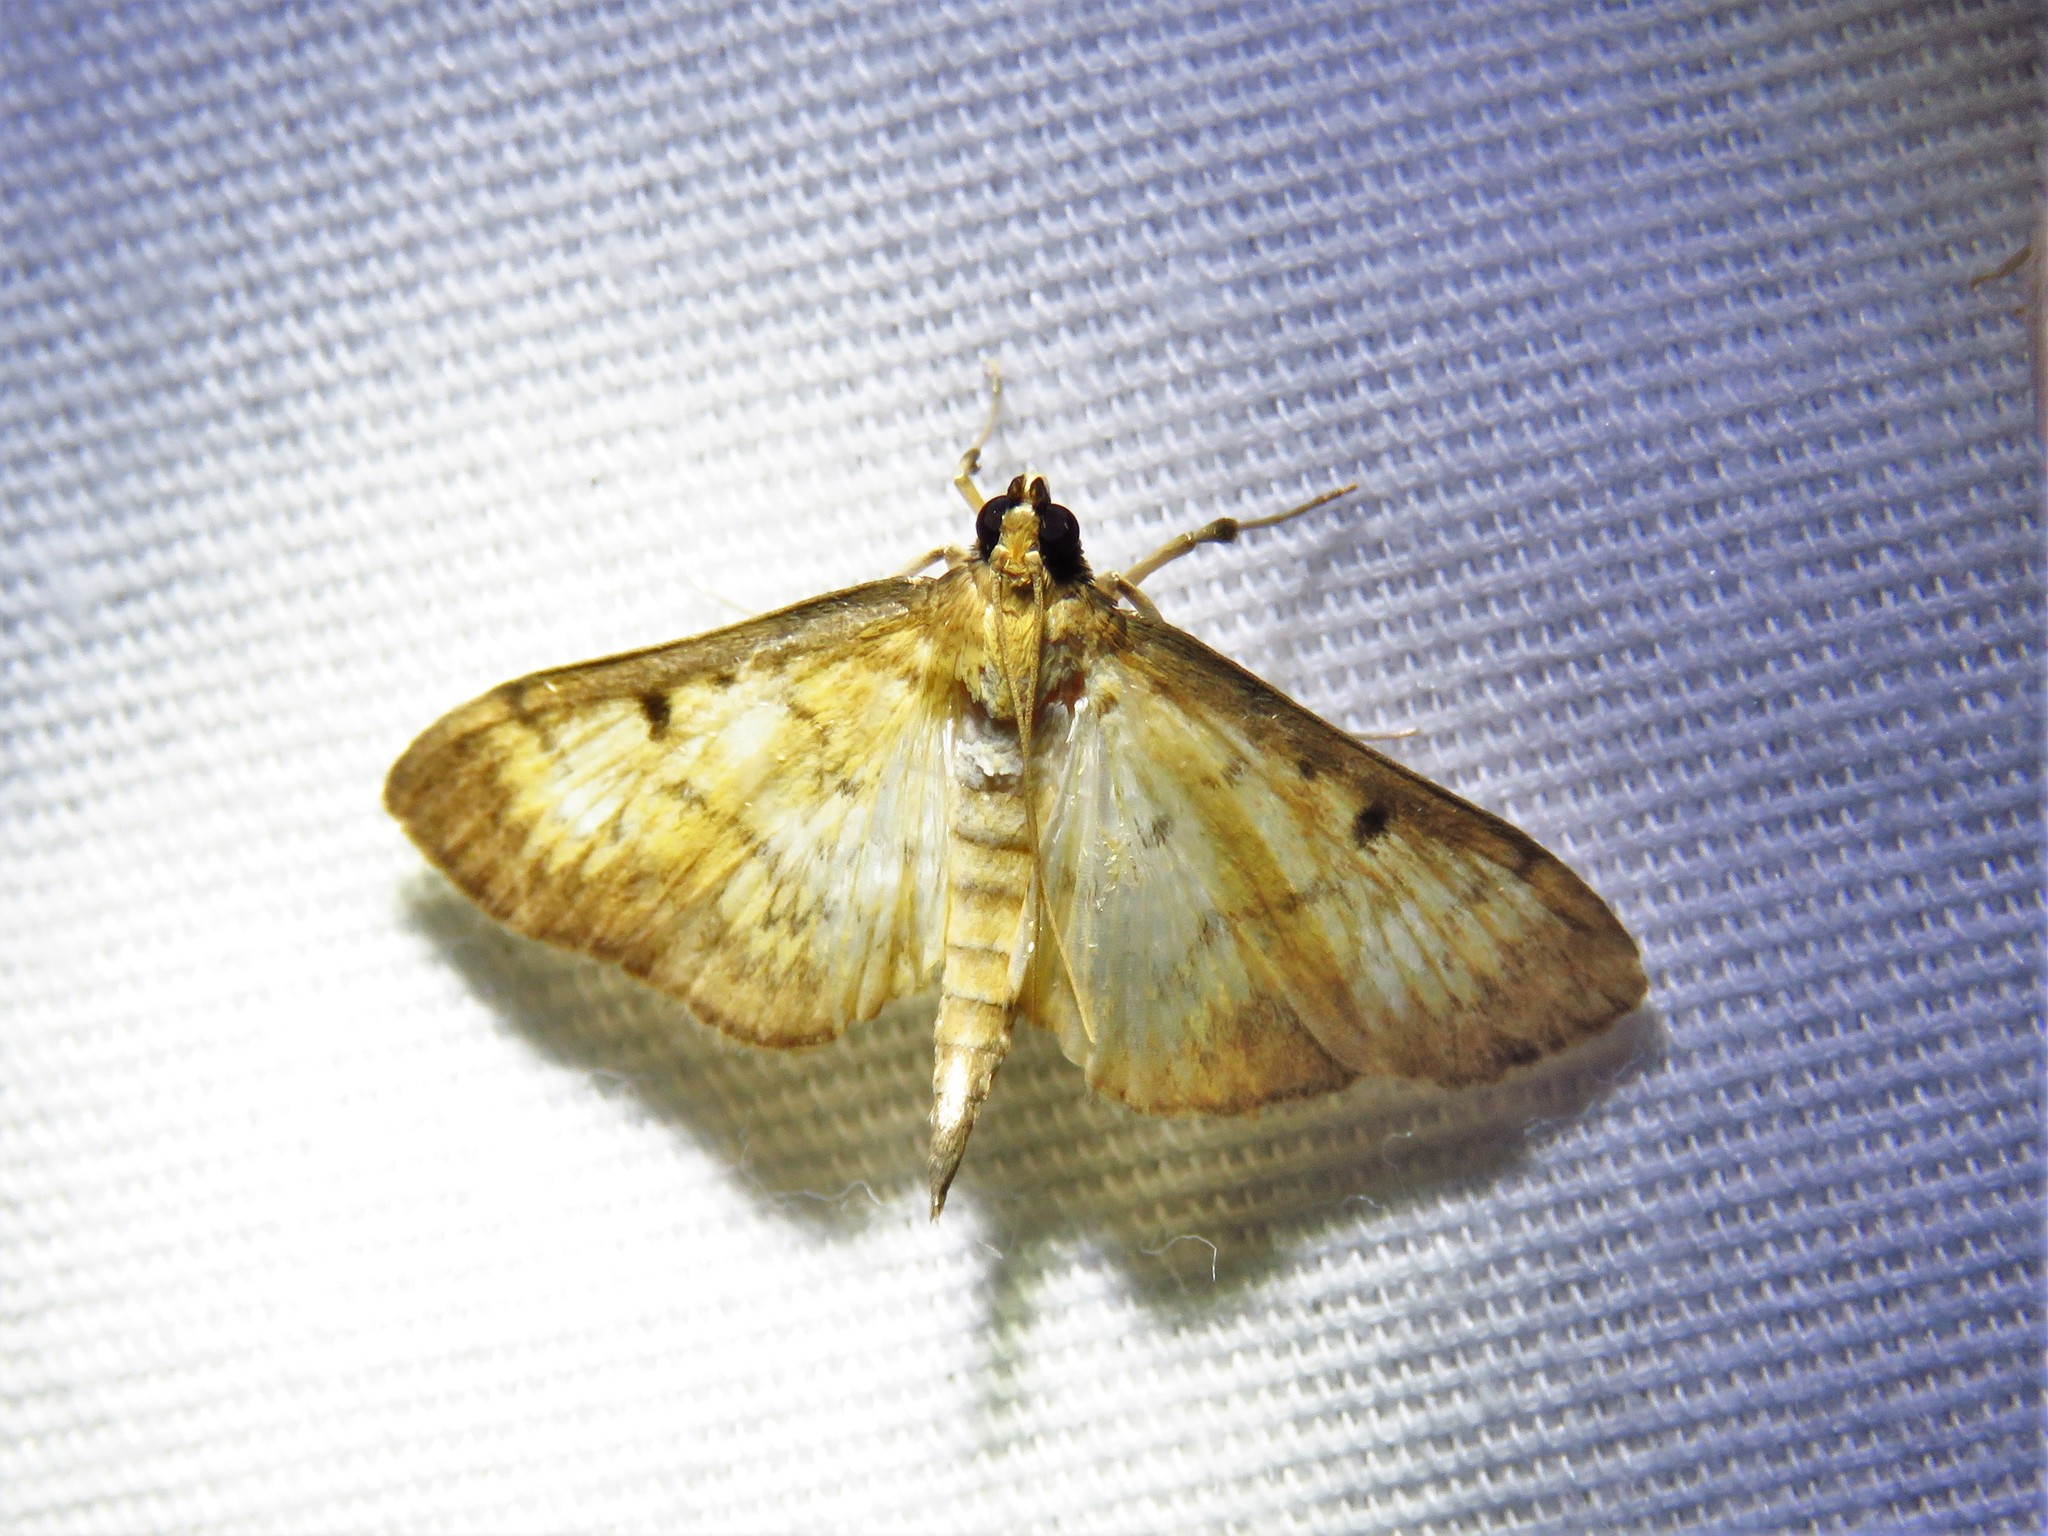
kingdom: Animalia
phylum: Arthropoda
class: Insecta
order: Lepidoptera
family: Crambidae
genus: Herpetogramma
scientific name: Herpetogramma fluctuosalis
